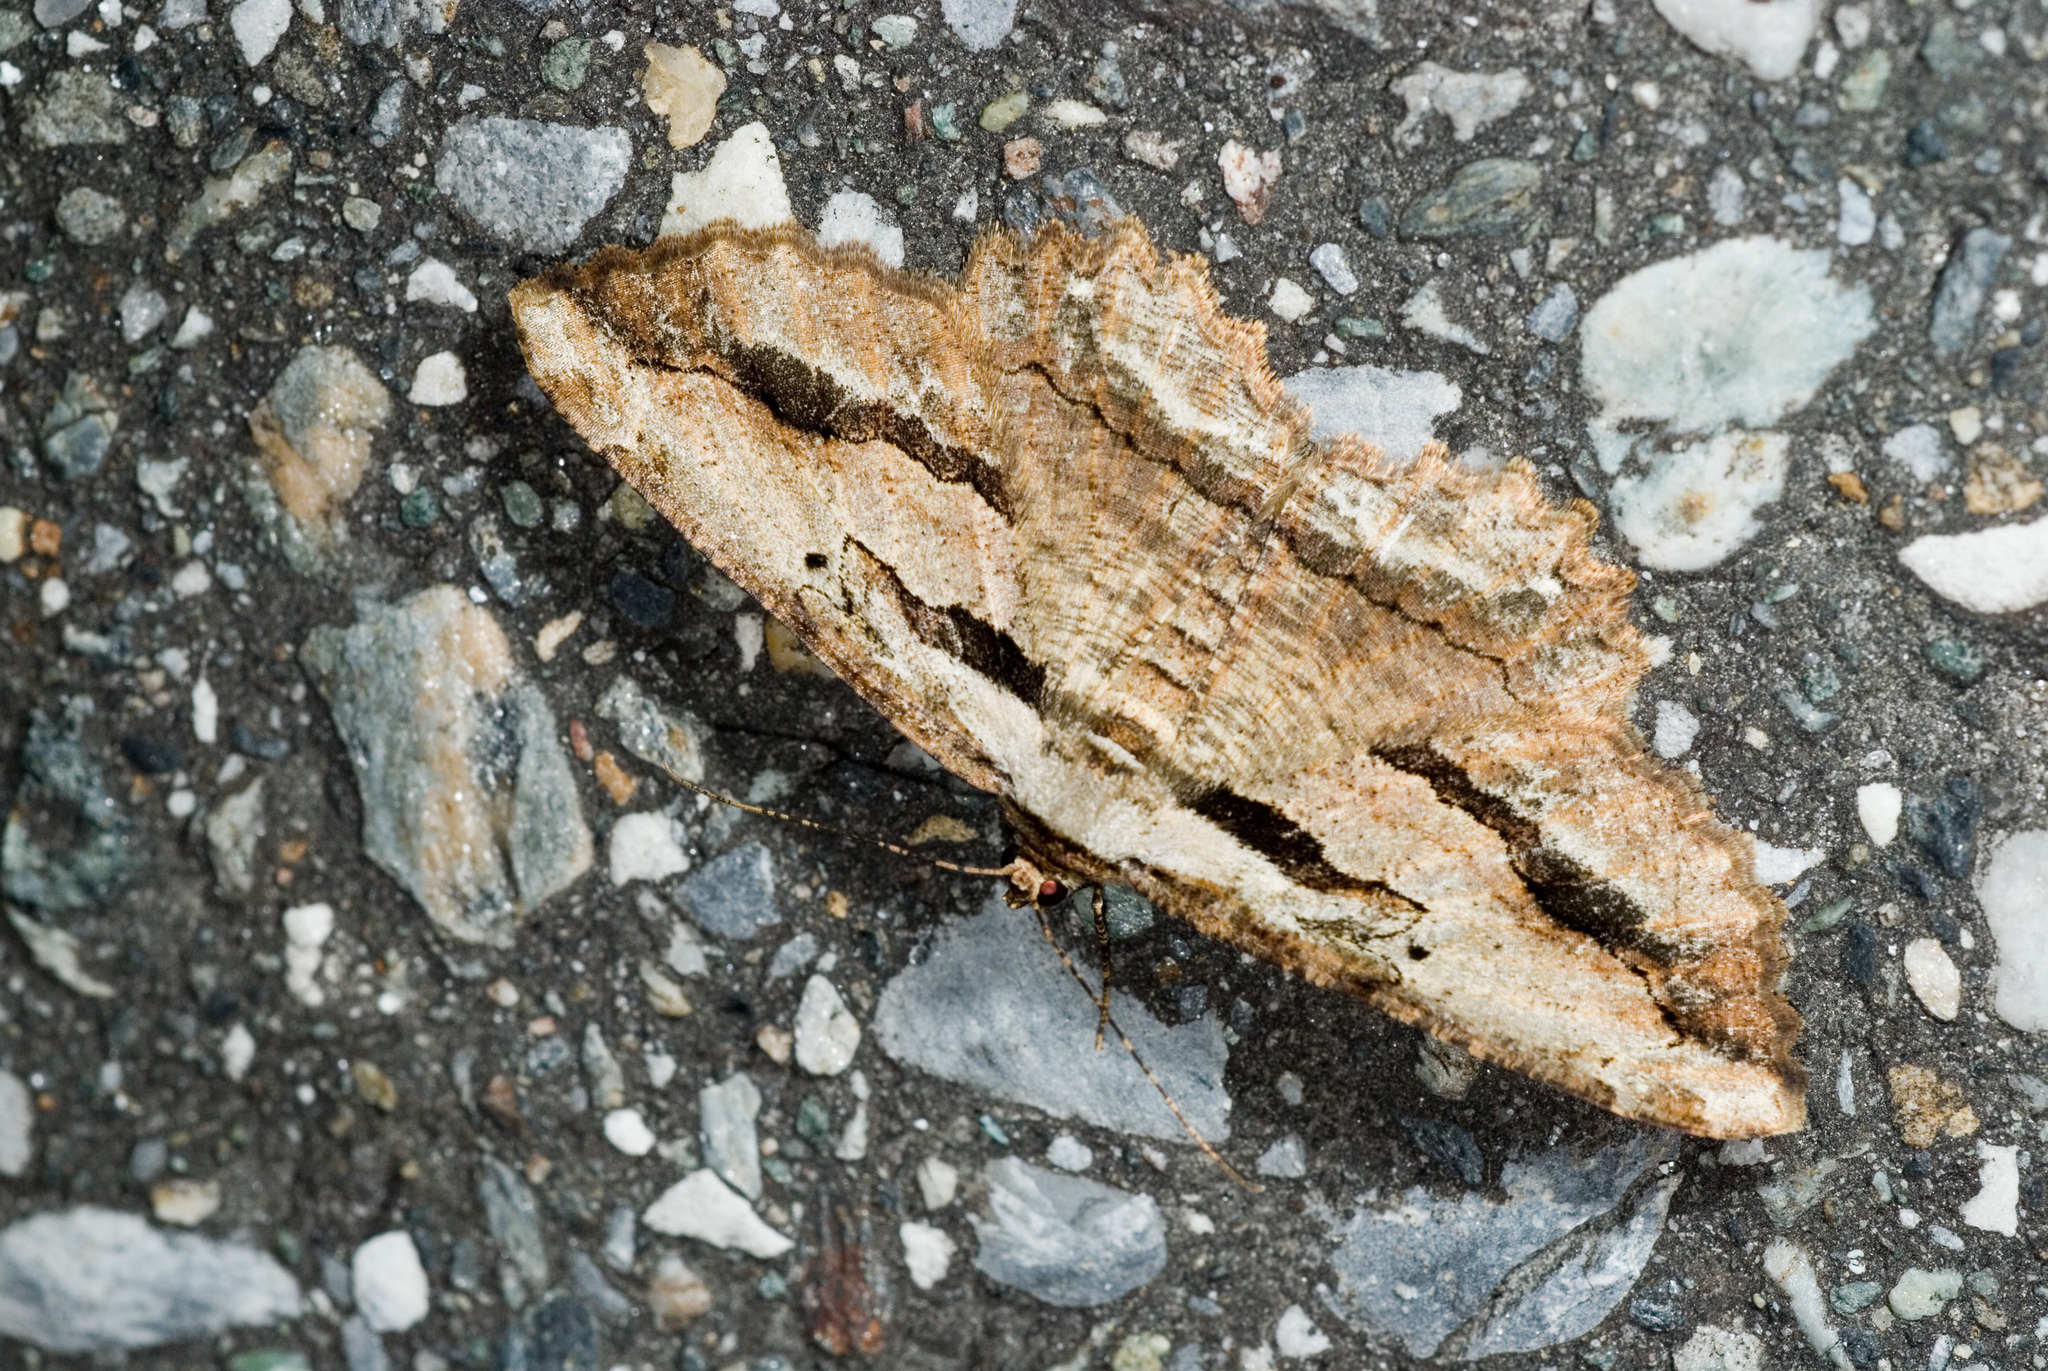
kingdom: Animalia
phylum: Arthropoda
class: Insecta
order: Lepidoptera
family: Geometridae
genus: Menophra
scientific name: Menophra nakajimai
